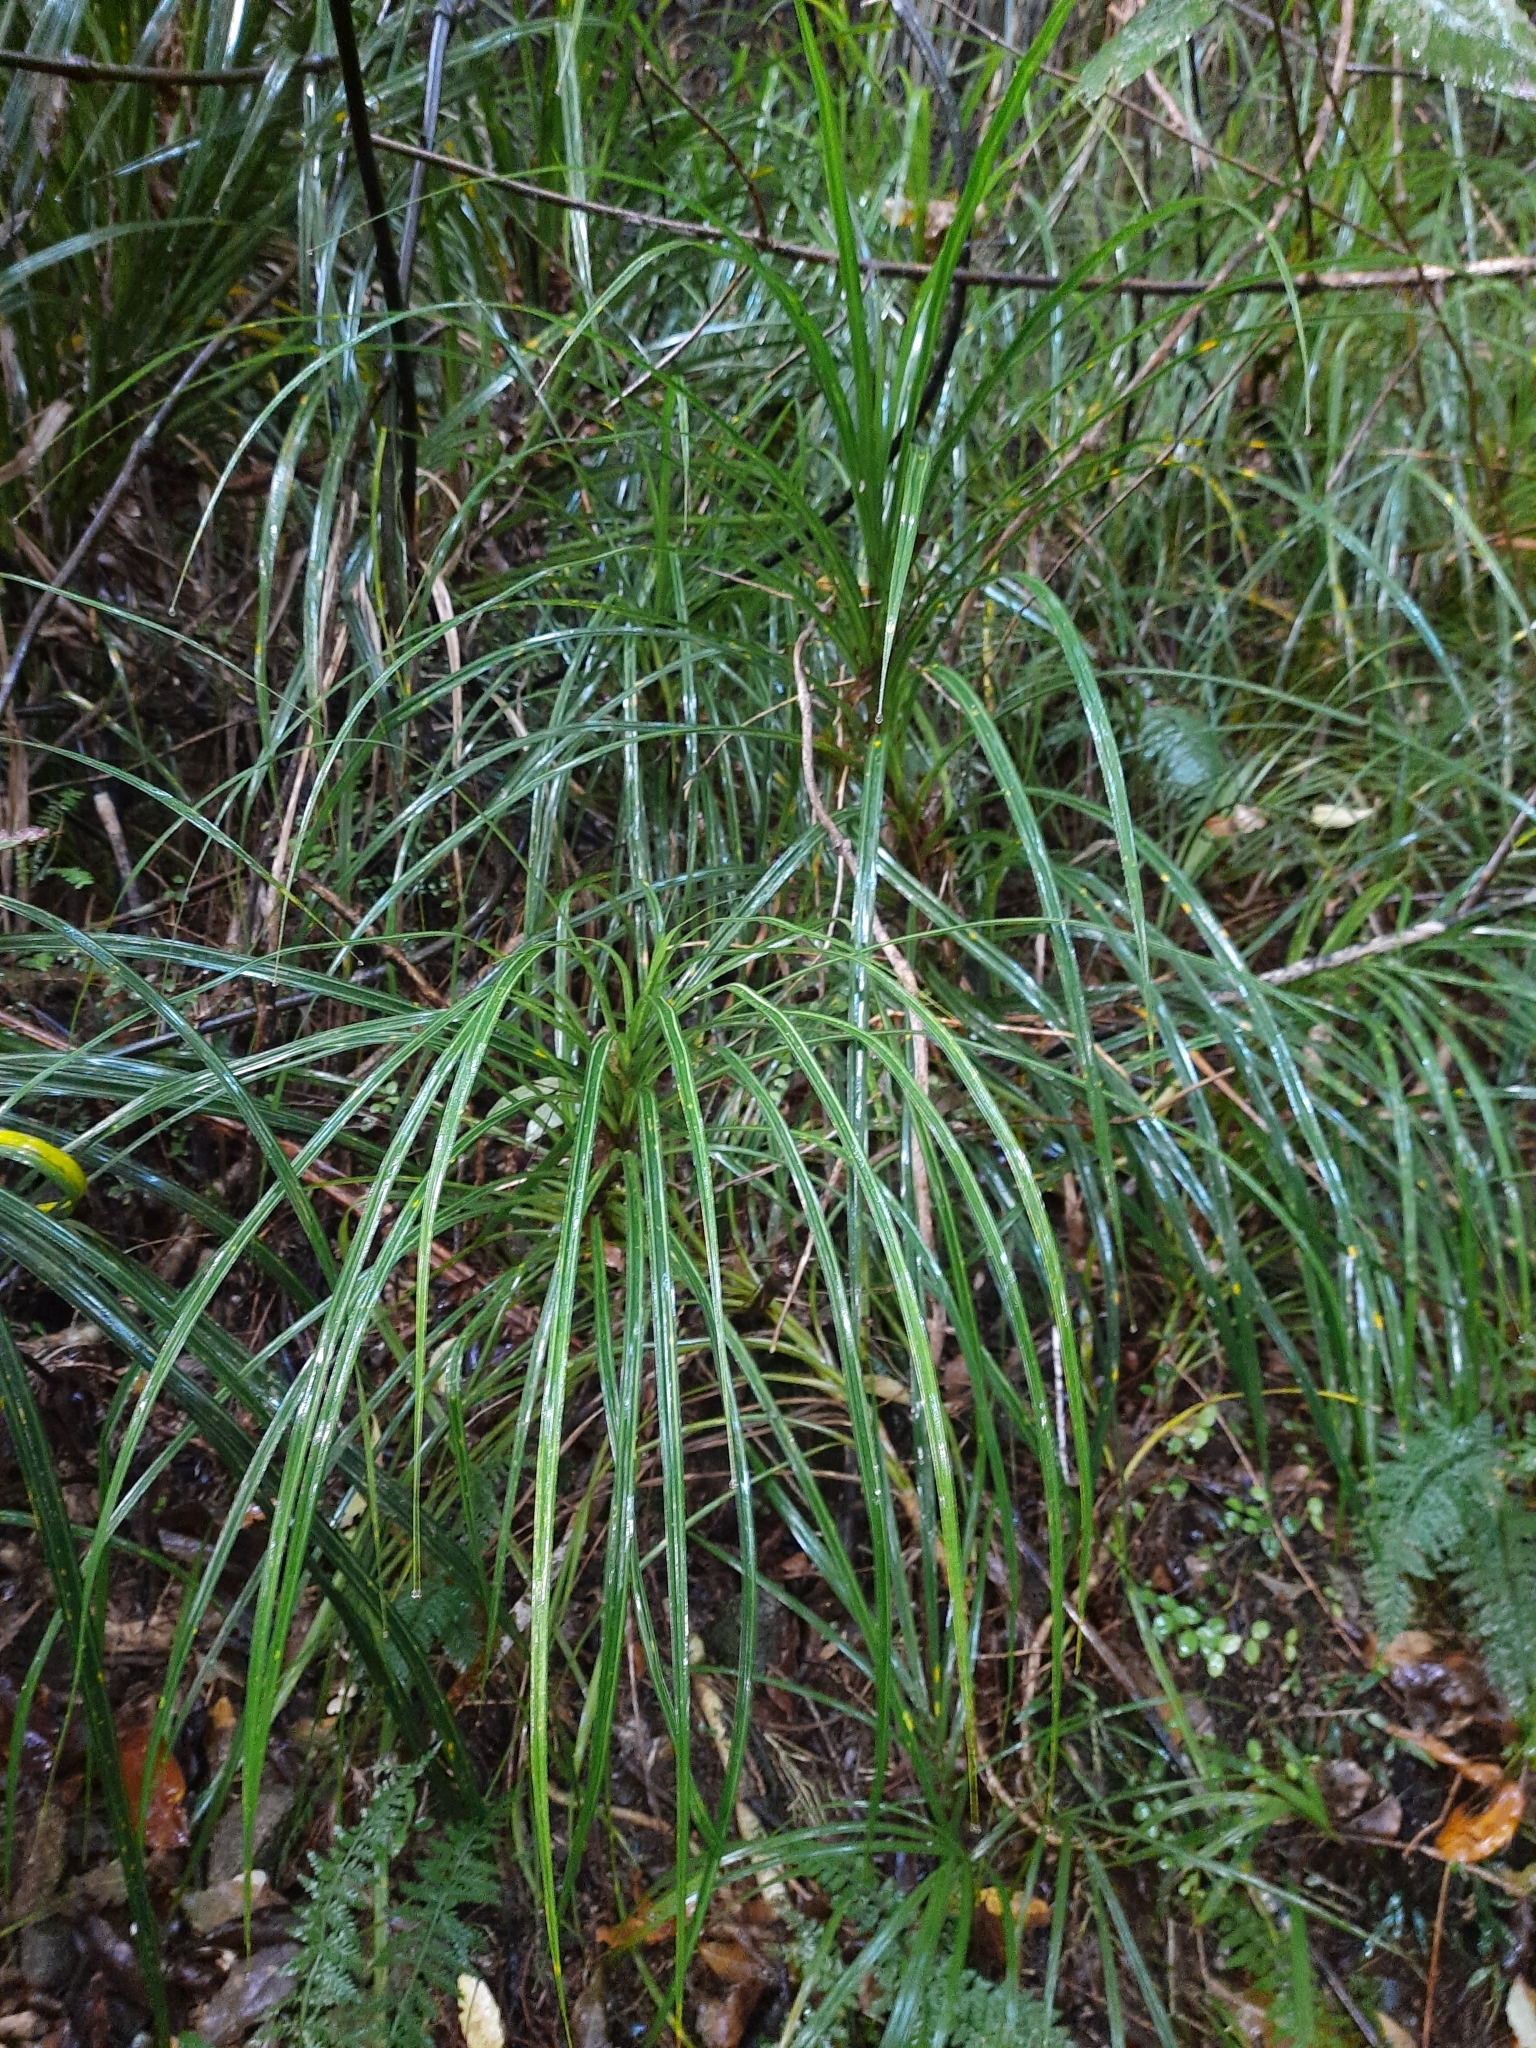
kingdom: Plantae
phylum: Tracheophyta
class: Liliopsida
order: Pandanales
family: Pandanaceae
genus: Freycinetia
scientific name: Freycinetia banksii
